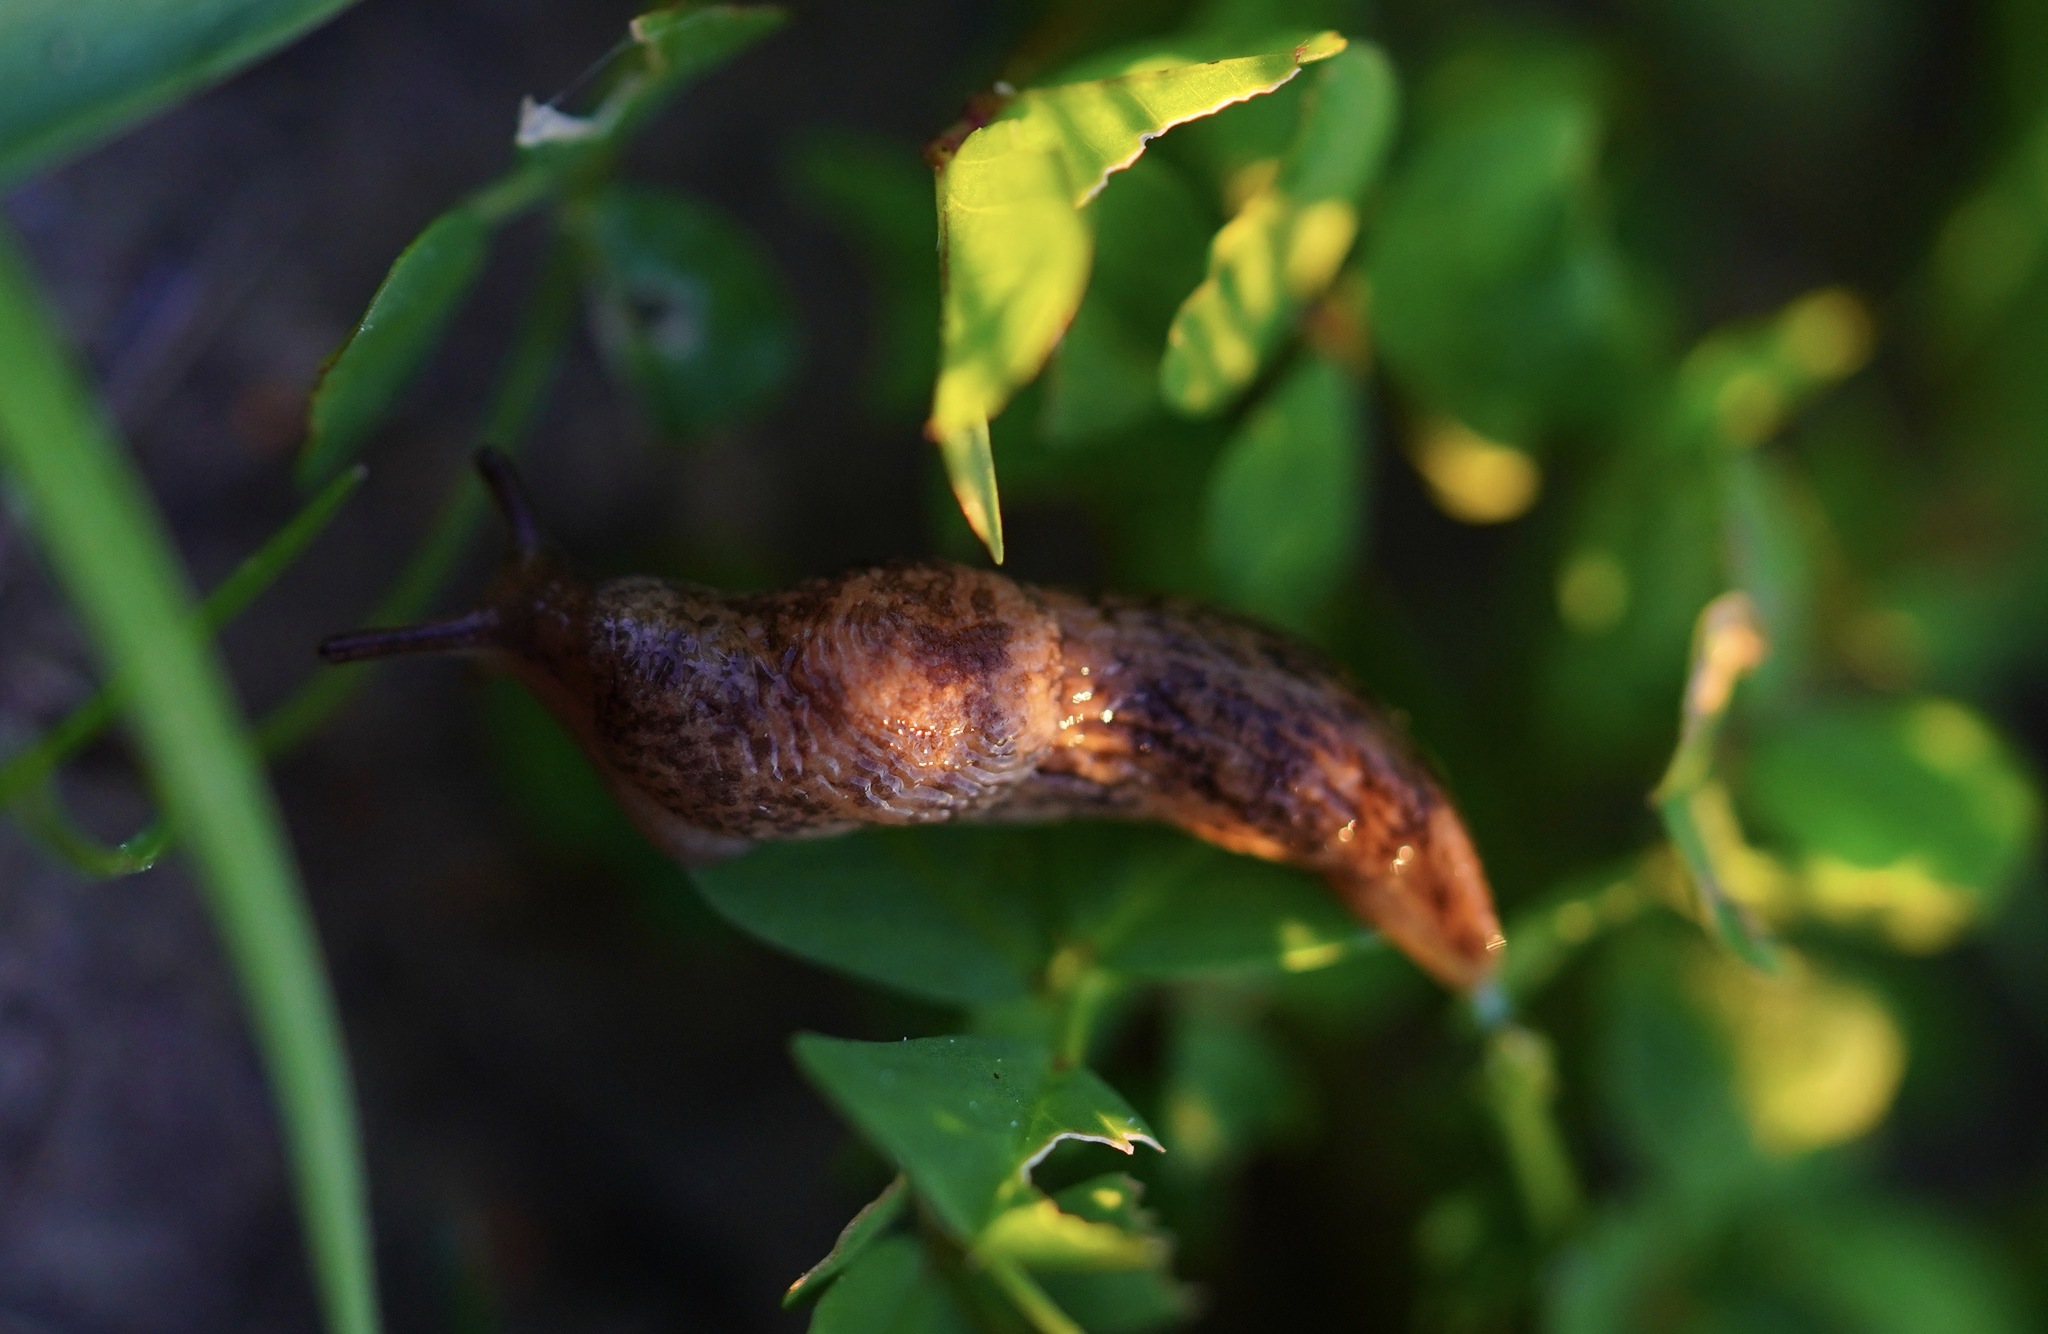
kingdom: Animalia
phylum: Mollusca
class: Gastropoda
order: Stylommatophora
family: Agriolimacidae
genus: Deroceras
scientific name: Deroceras reticulatum
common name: Gray field slug
